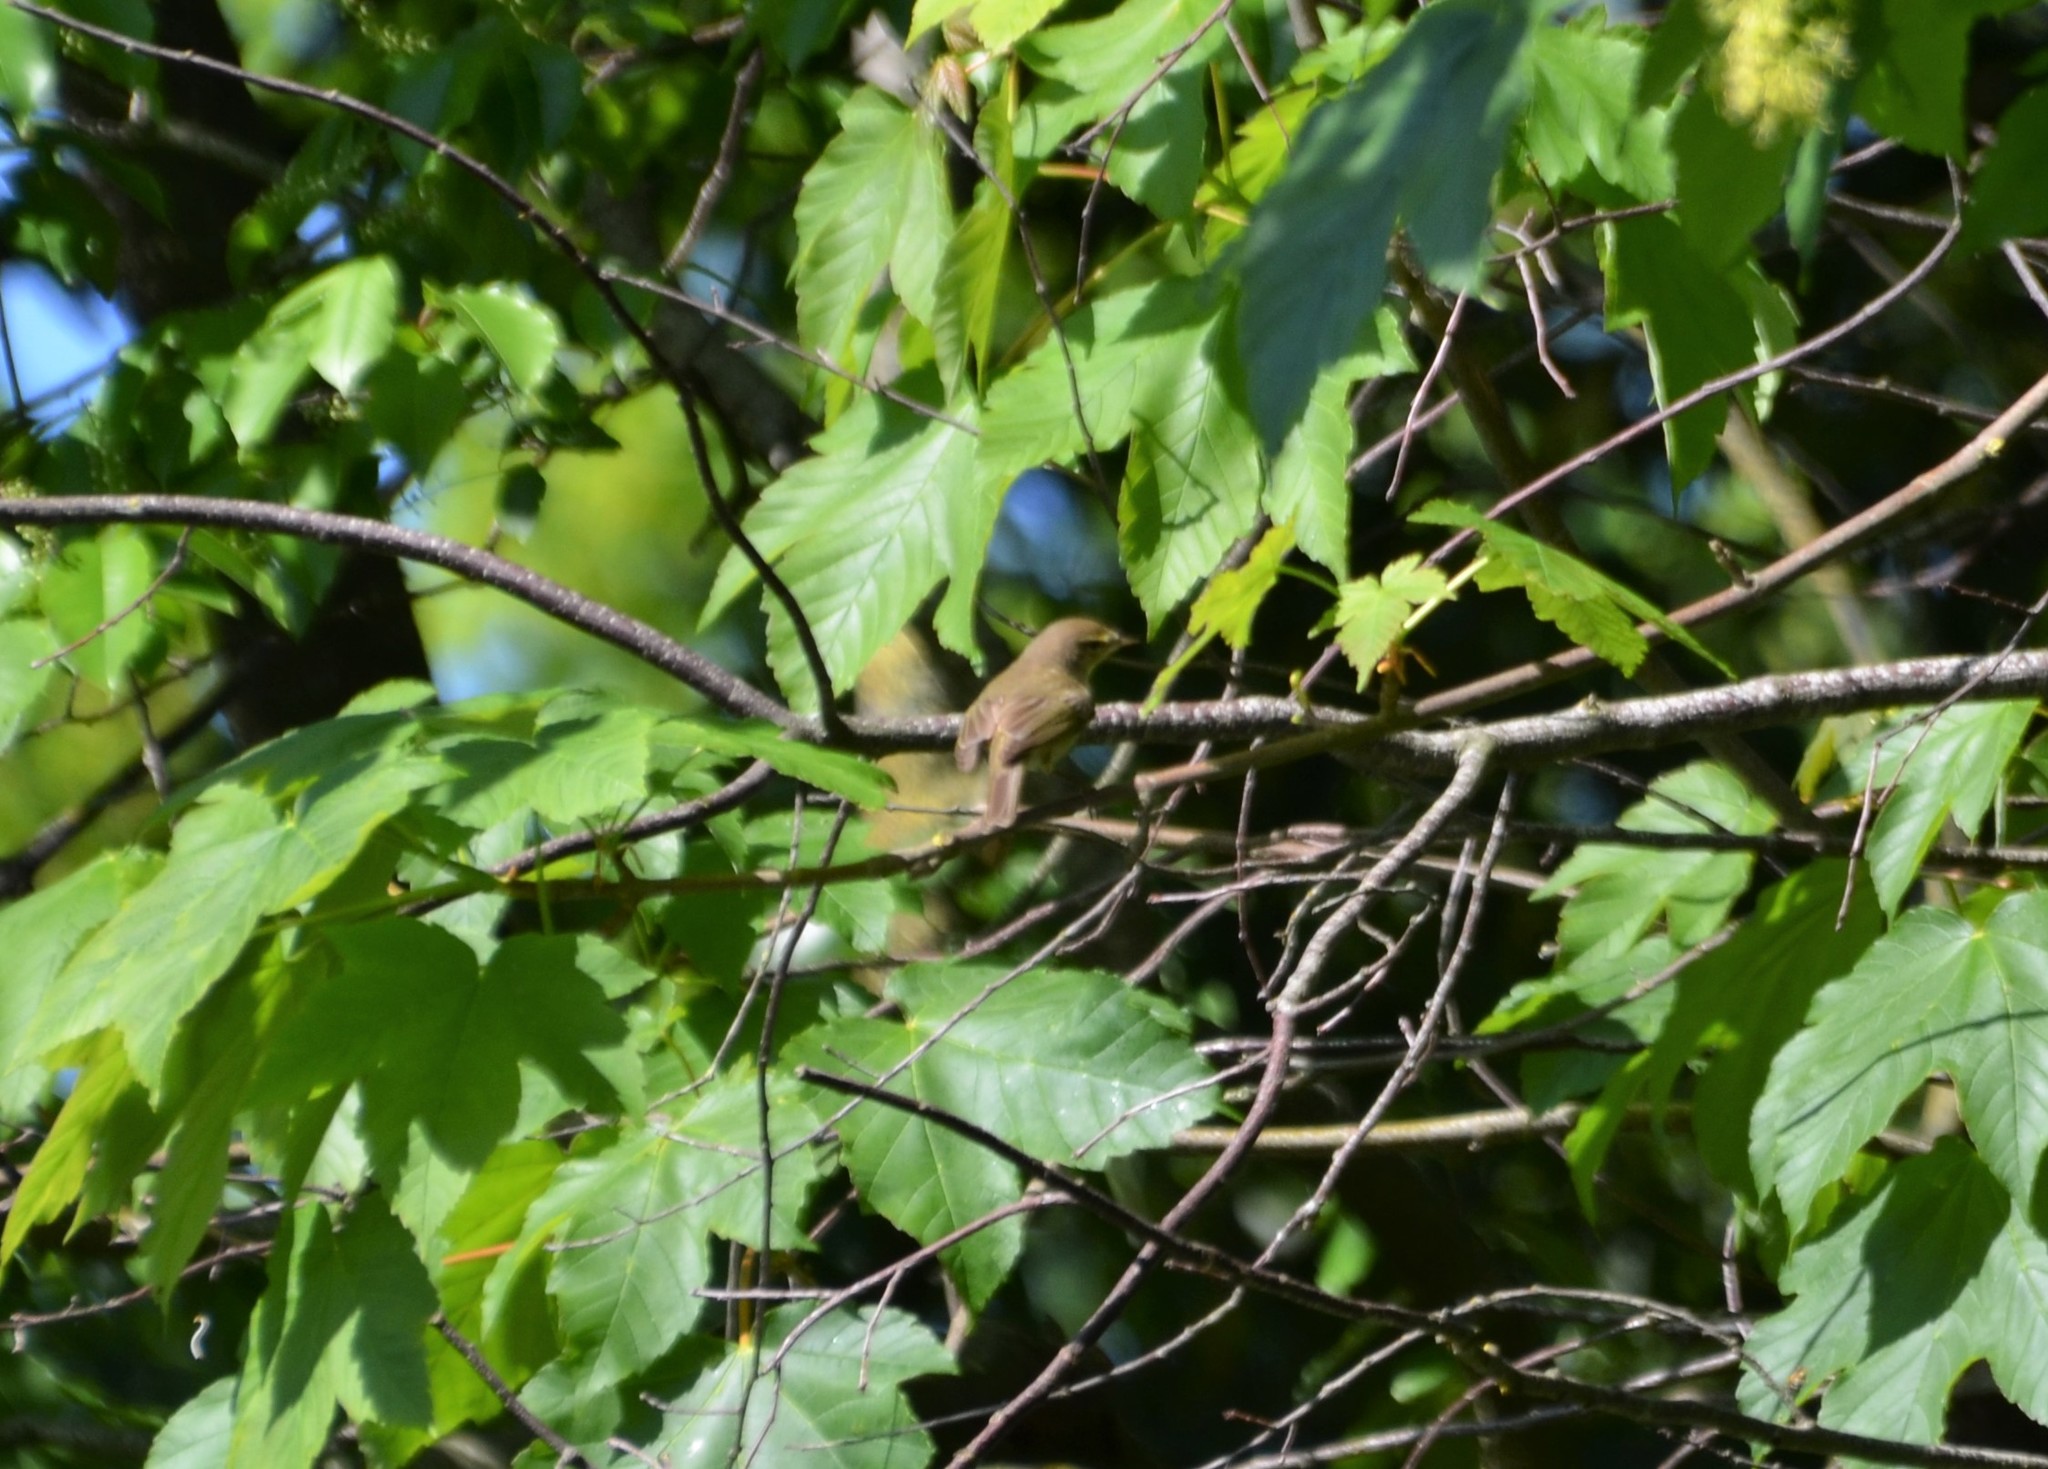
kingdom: Animalia
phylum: Chordata
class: Aves
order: Passeriformes
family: Phylloscopidae
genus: Phylloscopus
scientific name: Phylloscopus trochilus
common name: Willow warbler
